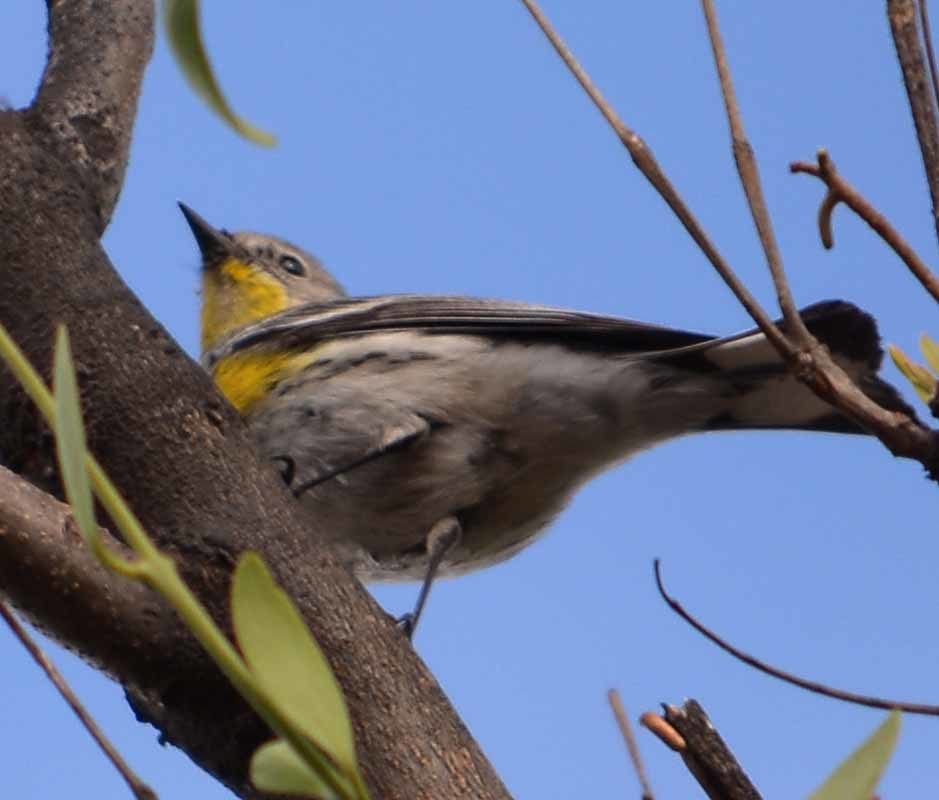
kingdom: Animalia
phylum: Chordata
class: Aves
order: Passeriformes
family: Parulidae
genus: Setophaga
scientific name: Setophaga coronata
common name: Myrtle warbler
